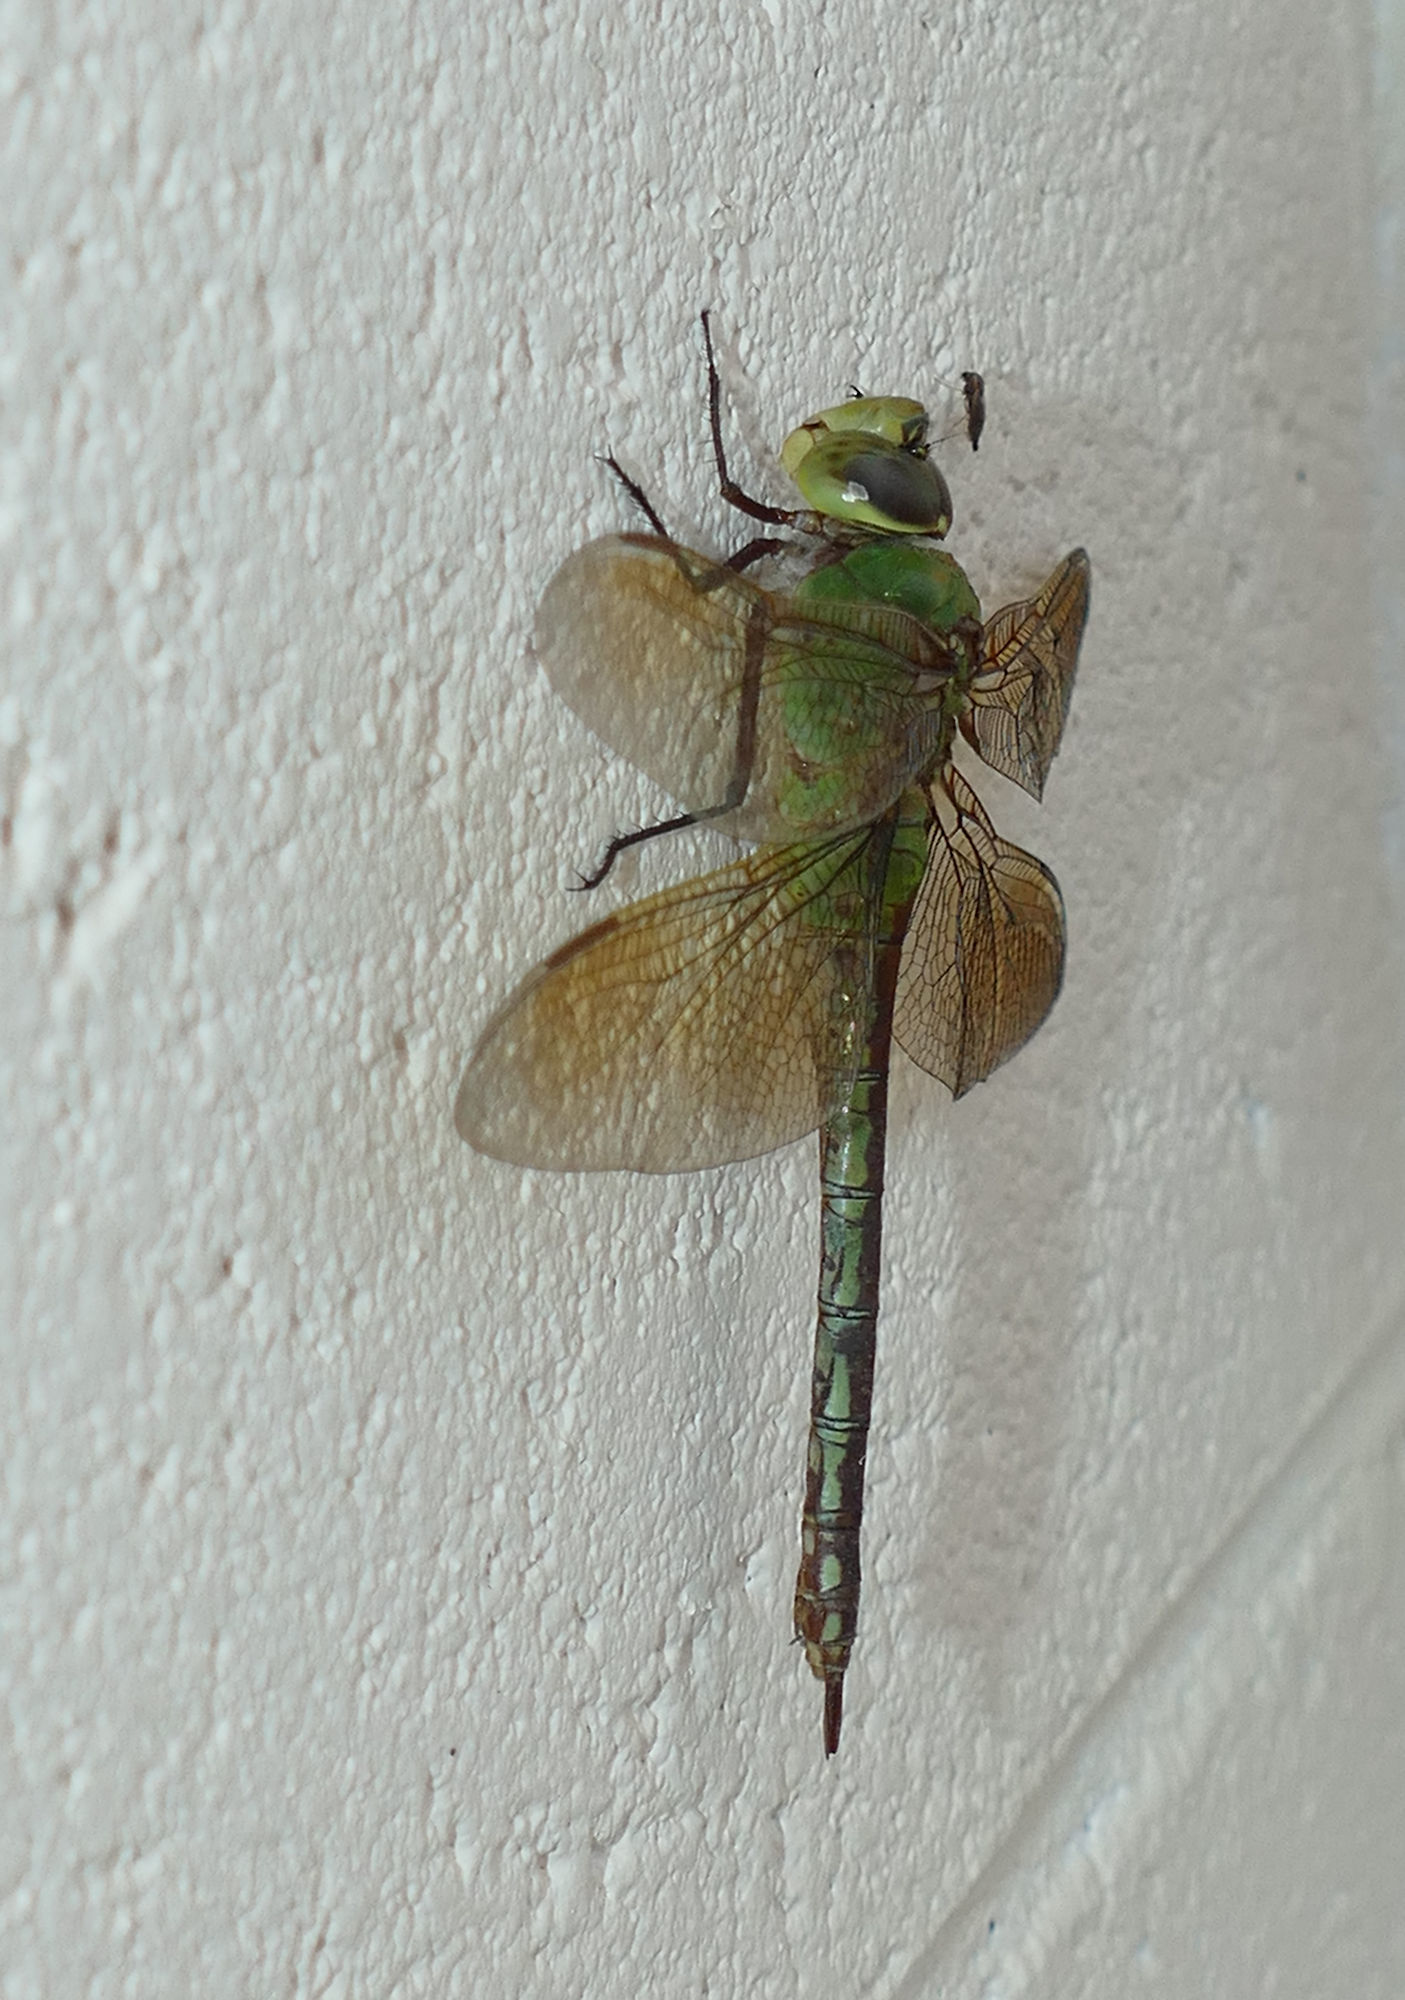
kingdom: Animalia
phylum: Arthropoda
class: Insecta
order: Odonata
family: Aeshnidae
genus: Anax
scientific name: Anax junius
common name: Common green darner
